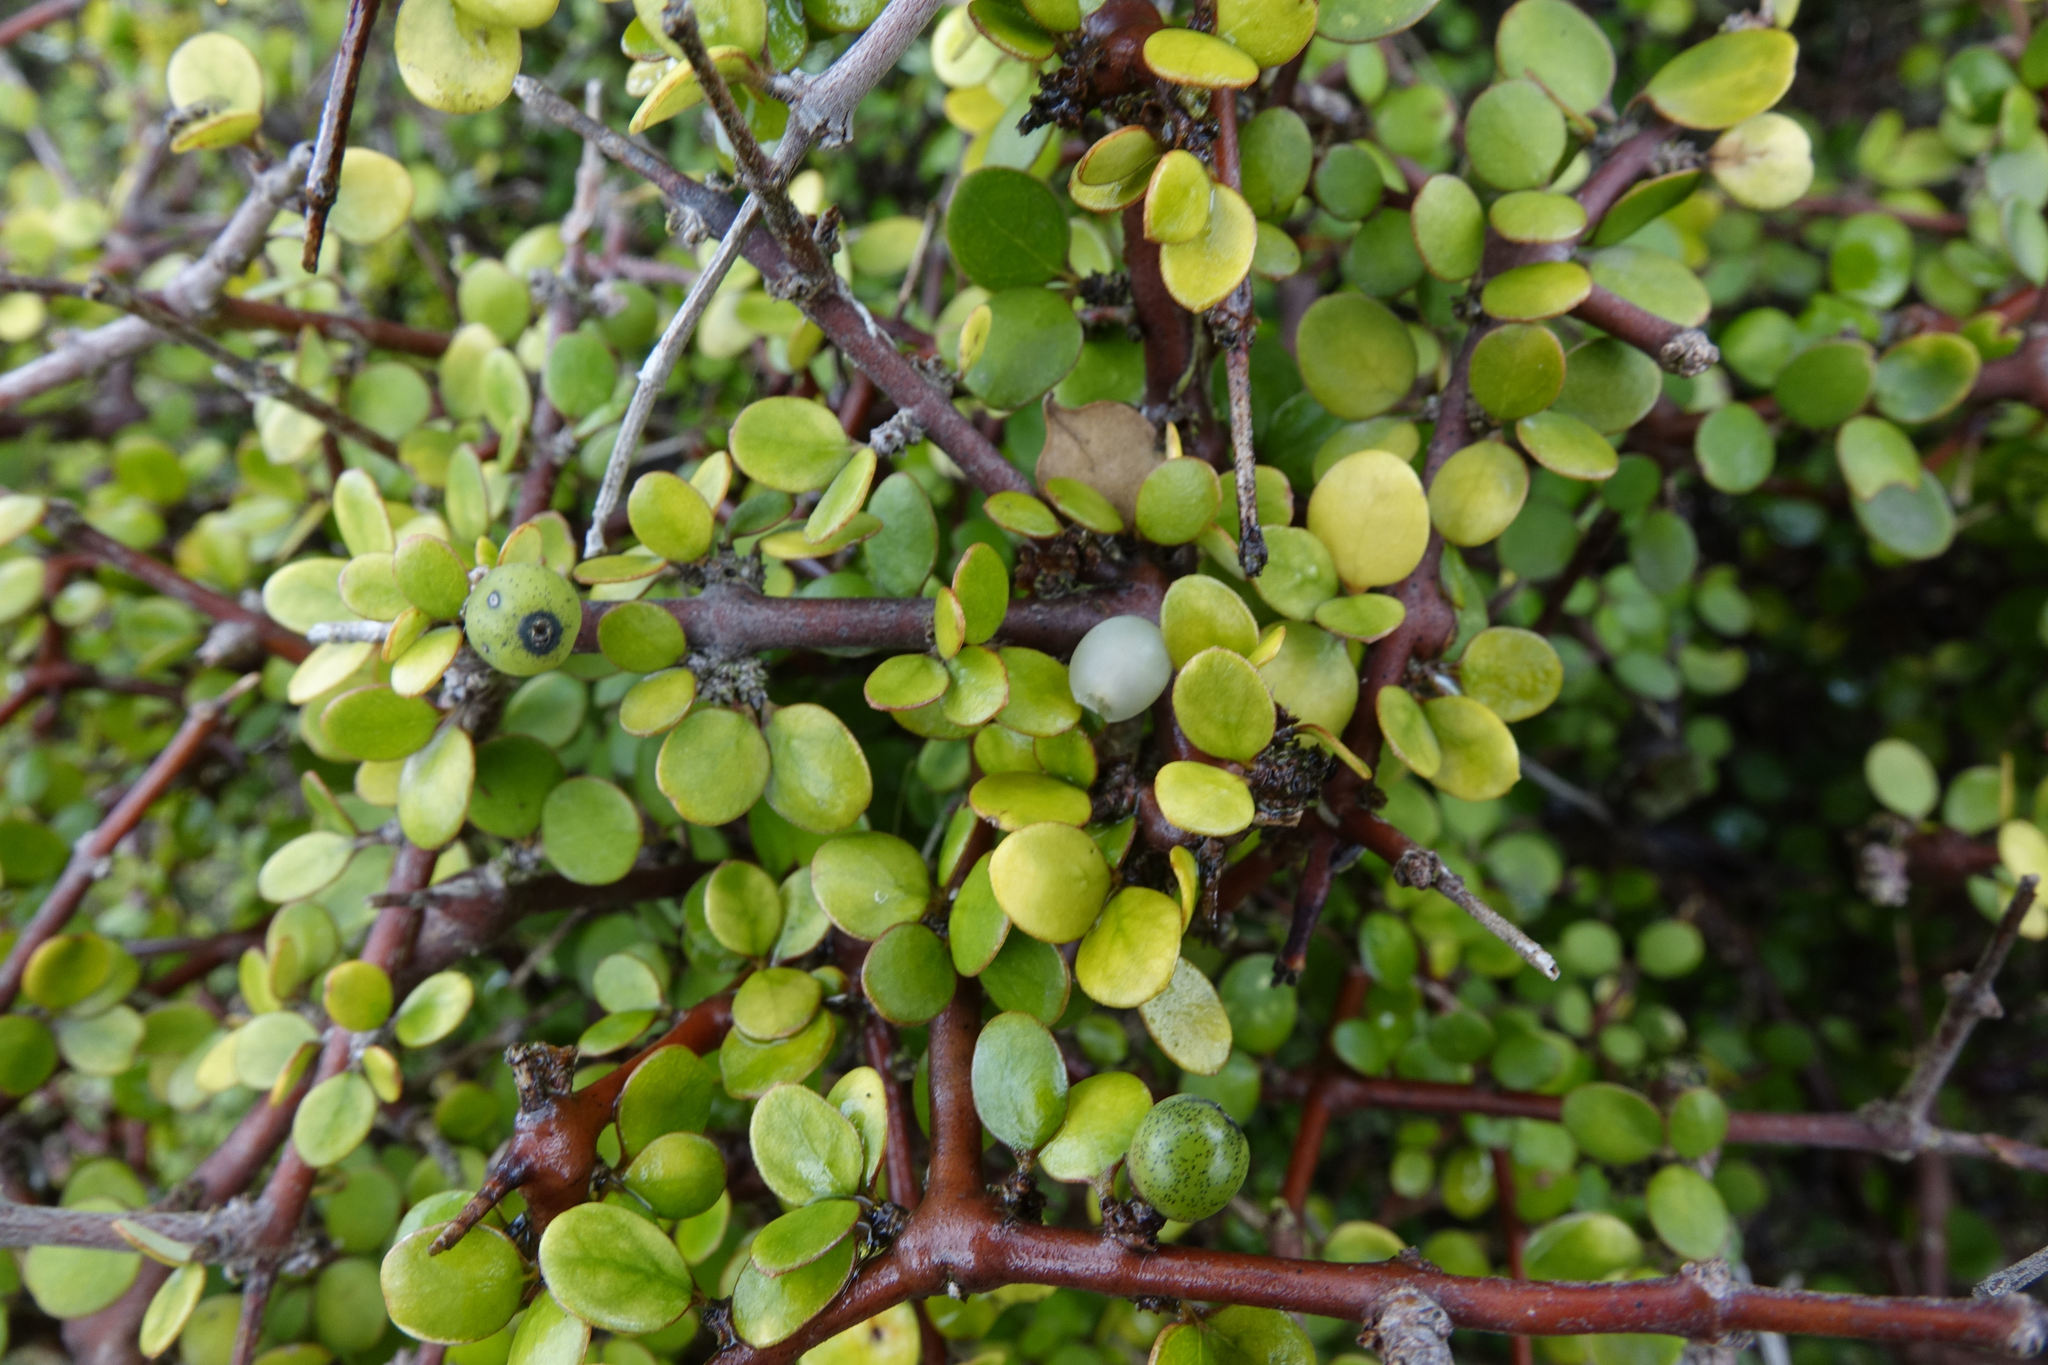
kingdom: Plantae
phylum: Tracheophyta
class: Magnoliopsida
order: Gentianales
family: Rubiaceae
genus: Coprosma
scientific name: Coprosma crassifolia
